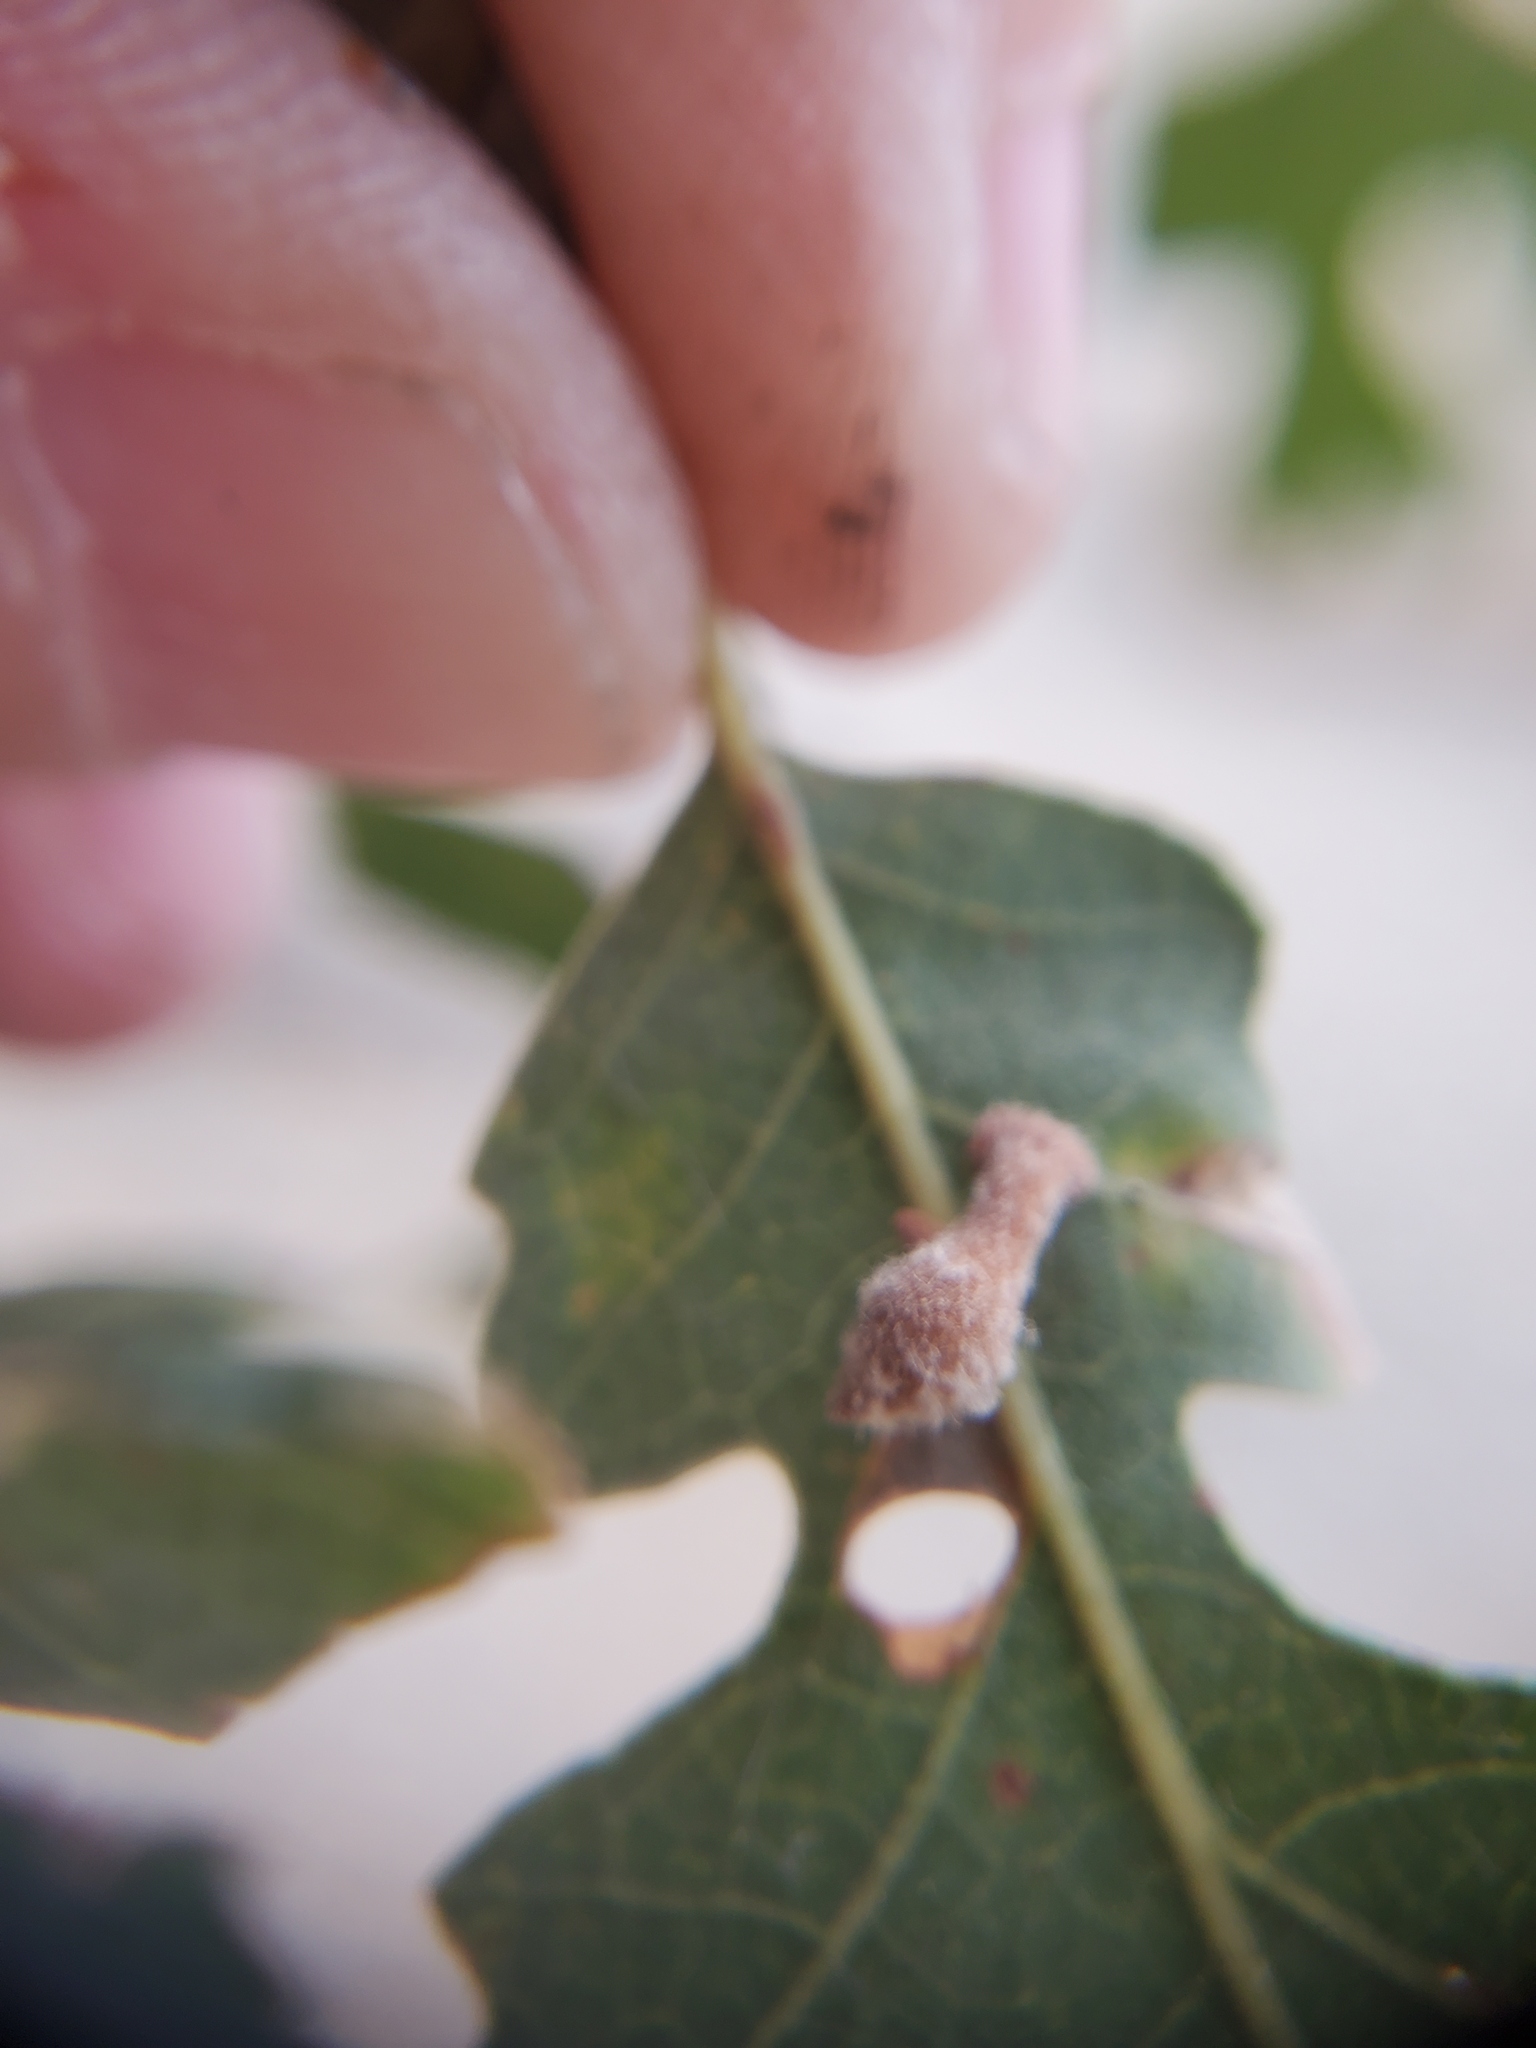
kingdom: Animalia
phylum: Arthropoda
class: Insecta
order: Hymenoptera
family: Cynipidae
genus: Atrusca
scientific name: Atrusca
